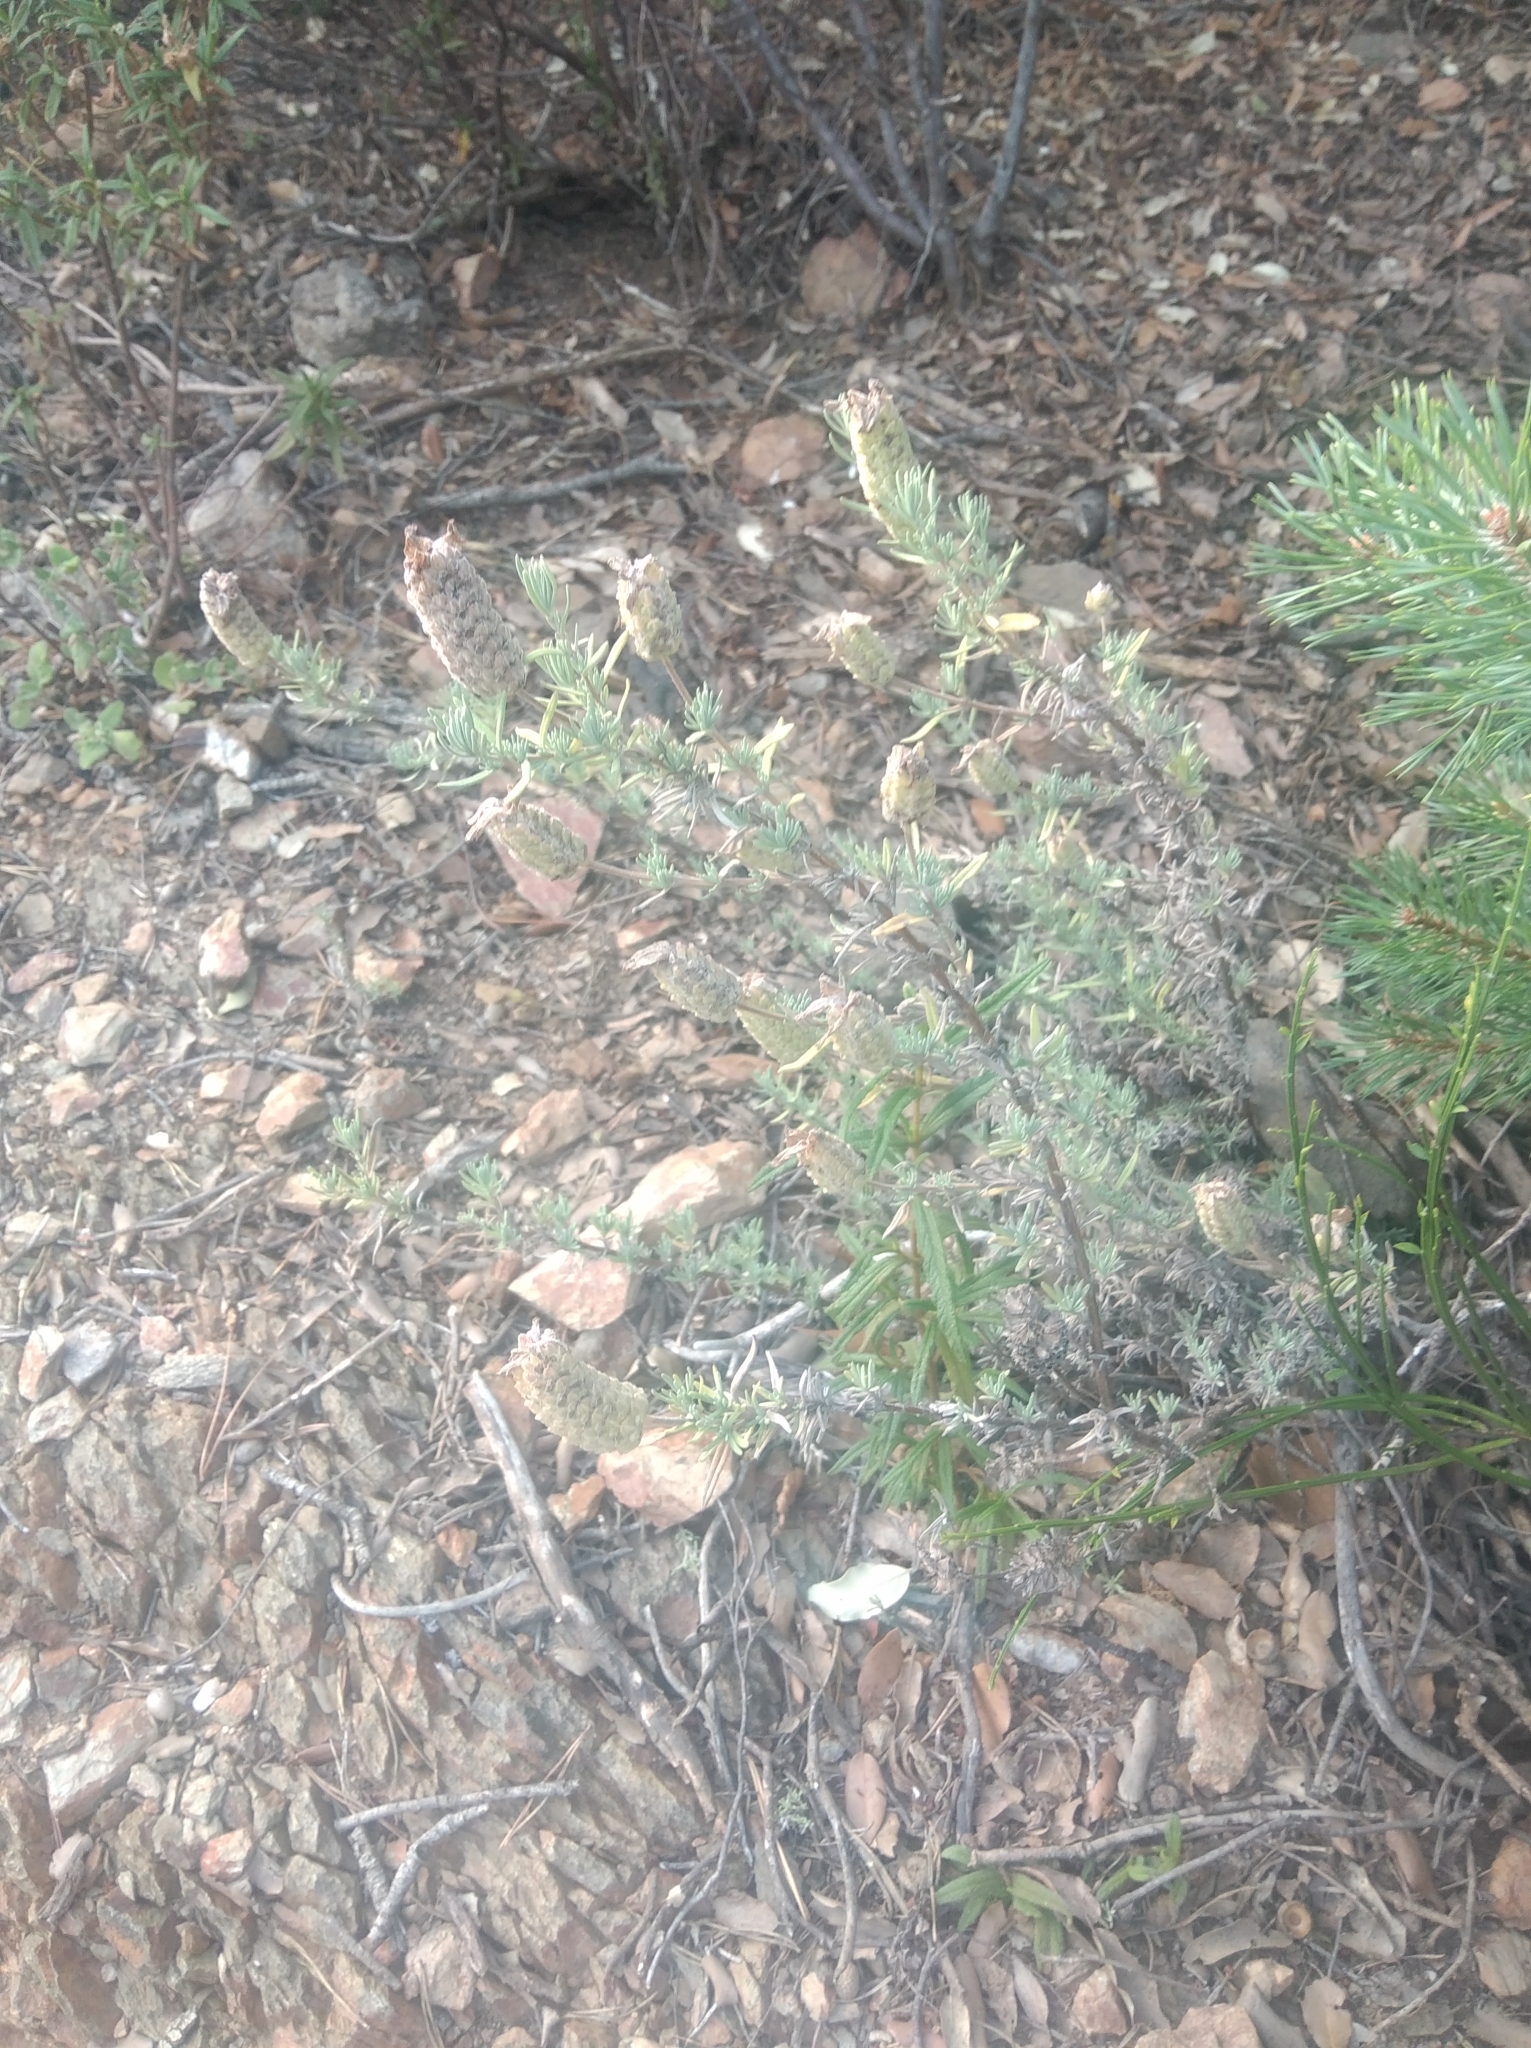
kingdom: Plantae
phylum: Tracheophyta
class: Magnoliopsida
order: Lamiales
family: Lamiaceae
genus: Lavandula
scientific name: Lavandula stoechas
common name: French lavender
